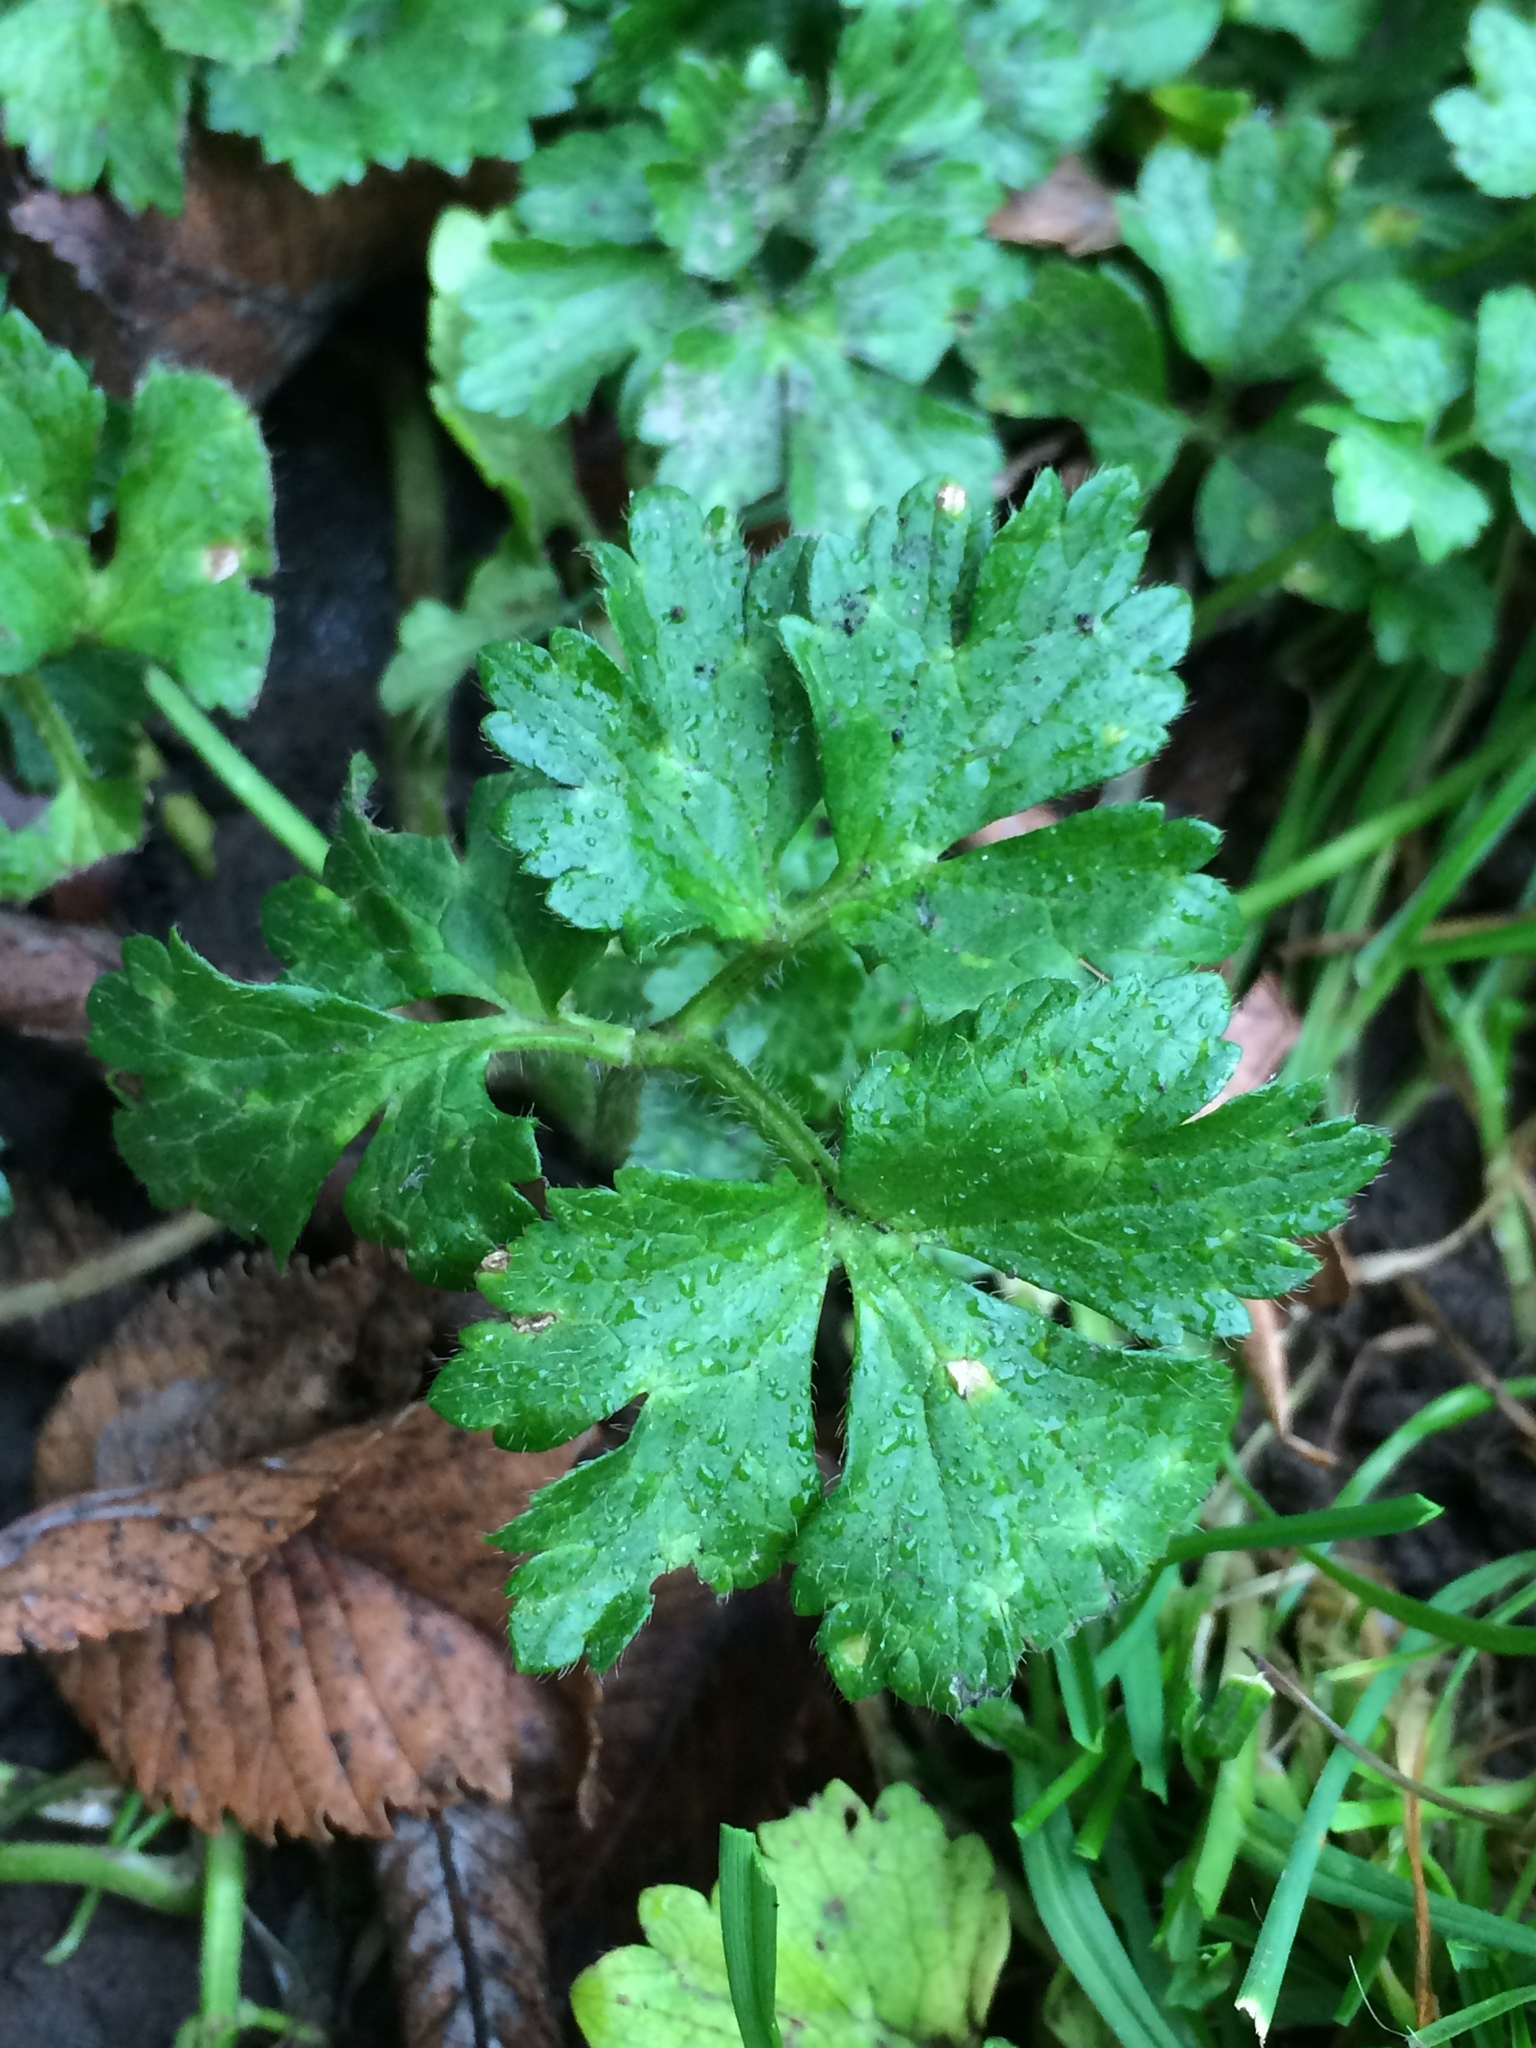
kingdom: Plantae
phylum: Tracheophyta
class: Magnoliopsida
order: Ranunculales
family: Ranunculaceae
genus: Ranunculus
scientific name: Ranunculus repens
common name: Creeping buttercup
